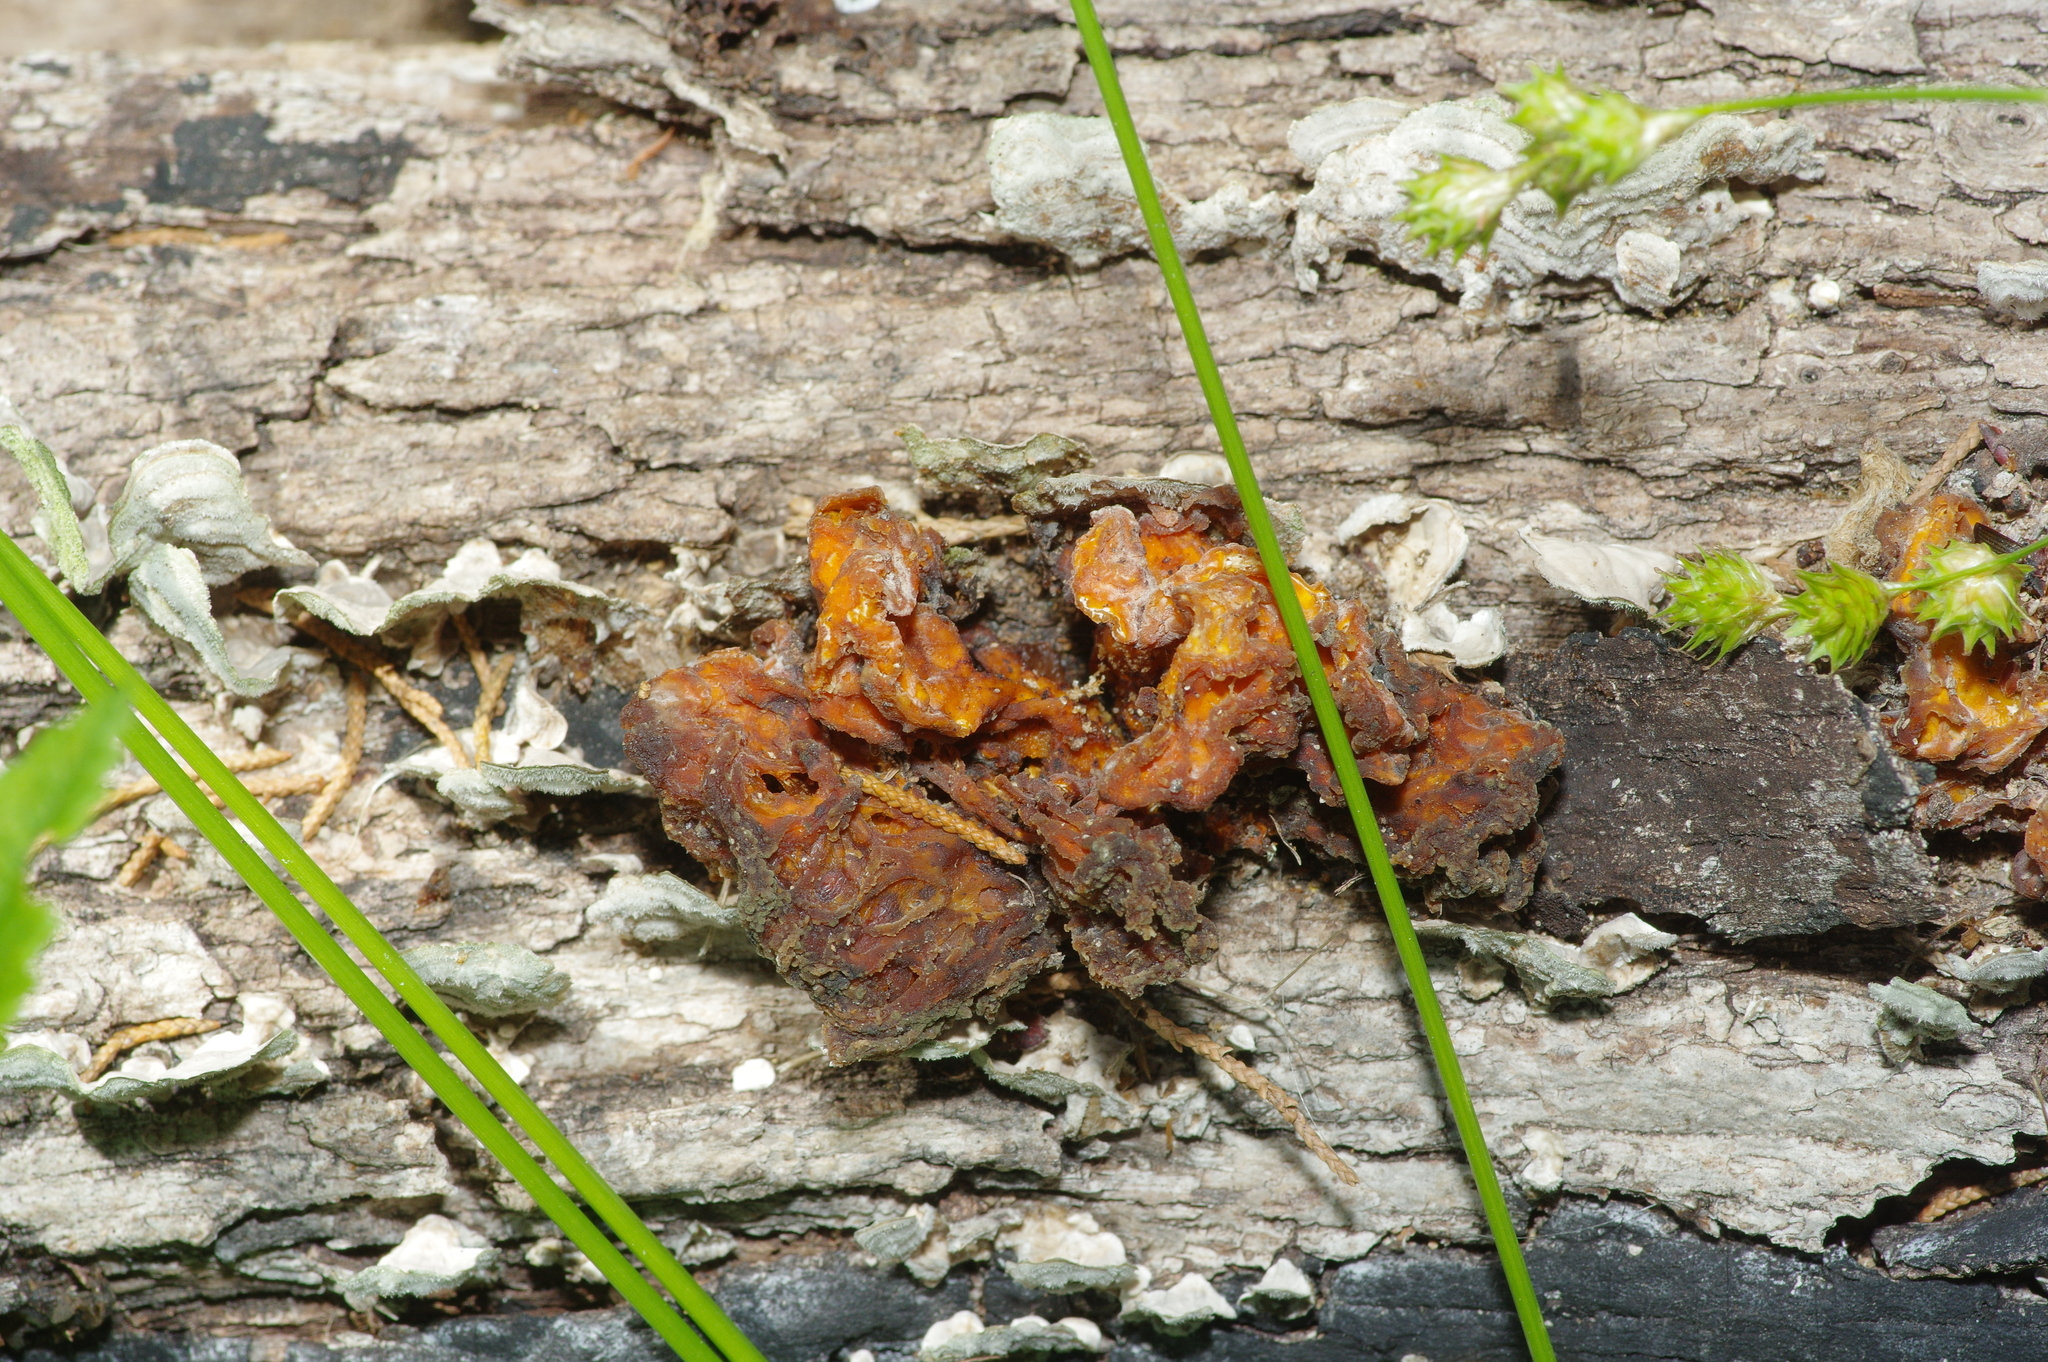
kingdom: Fungi
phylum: Basidiomycota
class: Tremellomycetes
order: Tremellales
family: Naemateliaceae
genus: Naematelia
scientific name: Naematelia aurantia
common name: Golden ear
